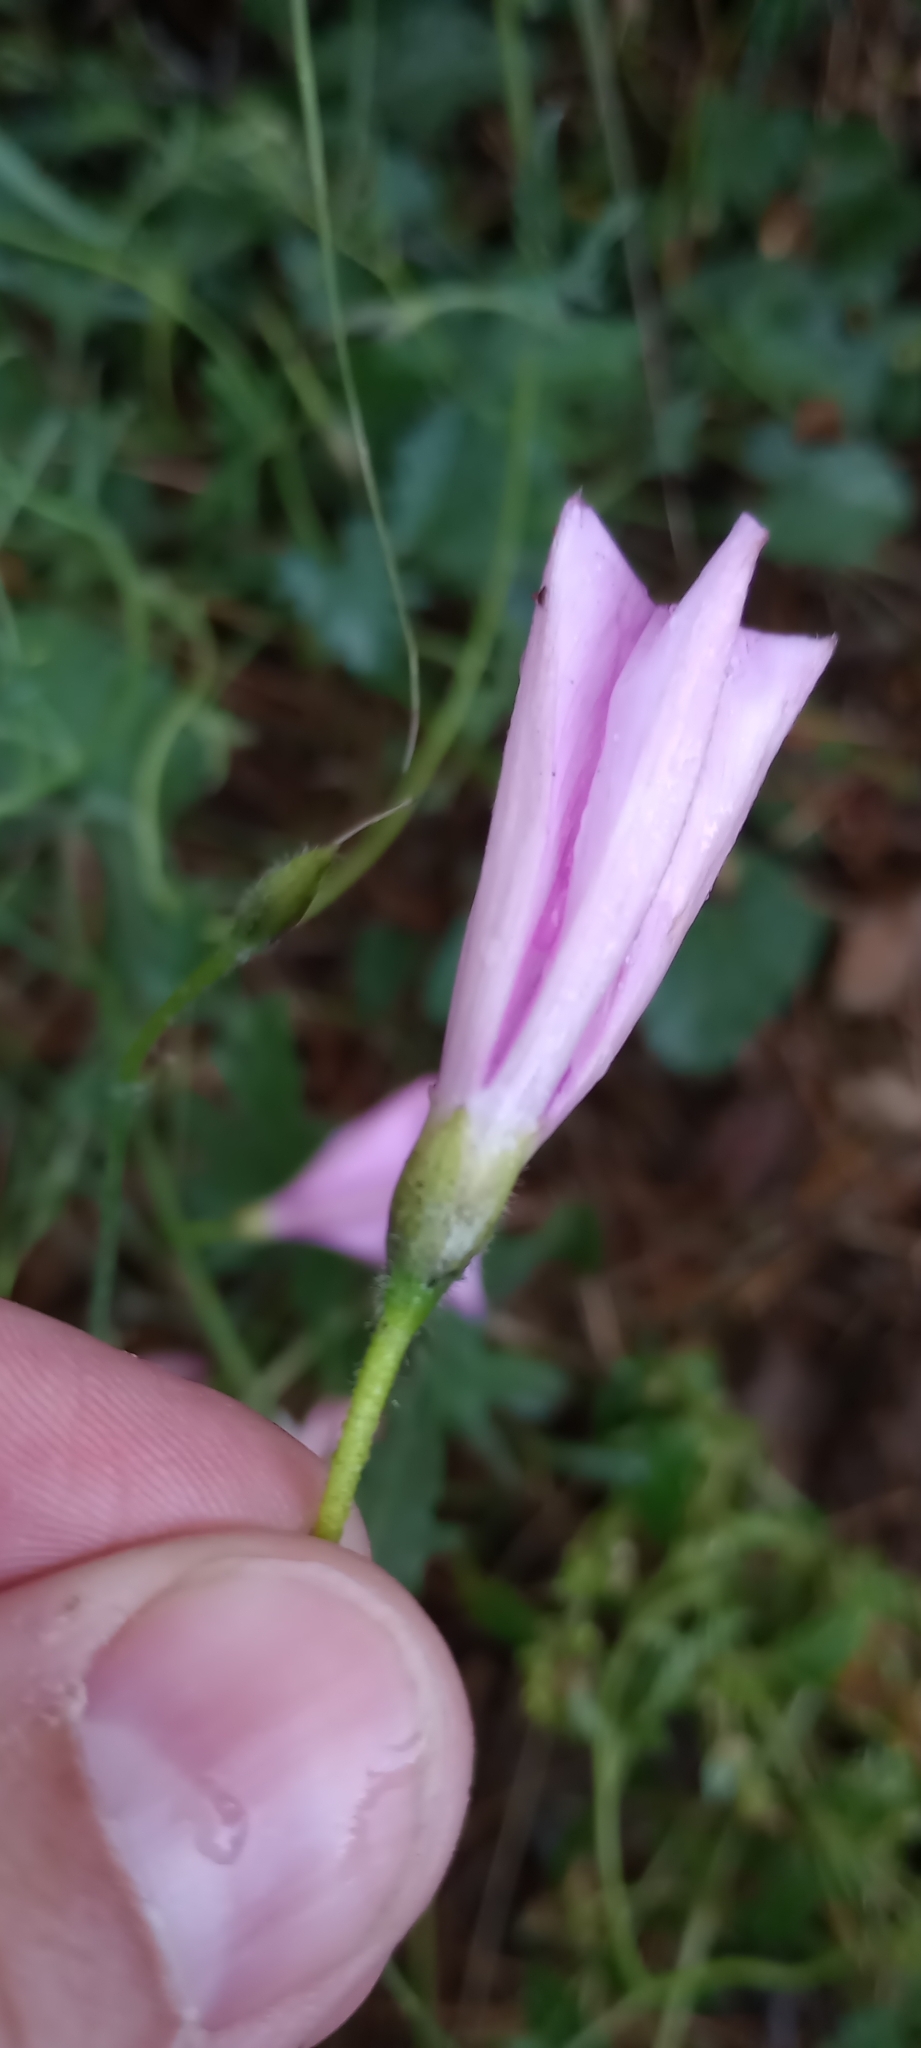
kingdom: Plantae
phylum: Tracheophyta
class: Magnoliopsida
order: Solanales
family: Convolvulaceae
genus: Convolvulus
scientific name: Convolvulus althaeoides
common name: Mallow bindweed
